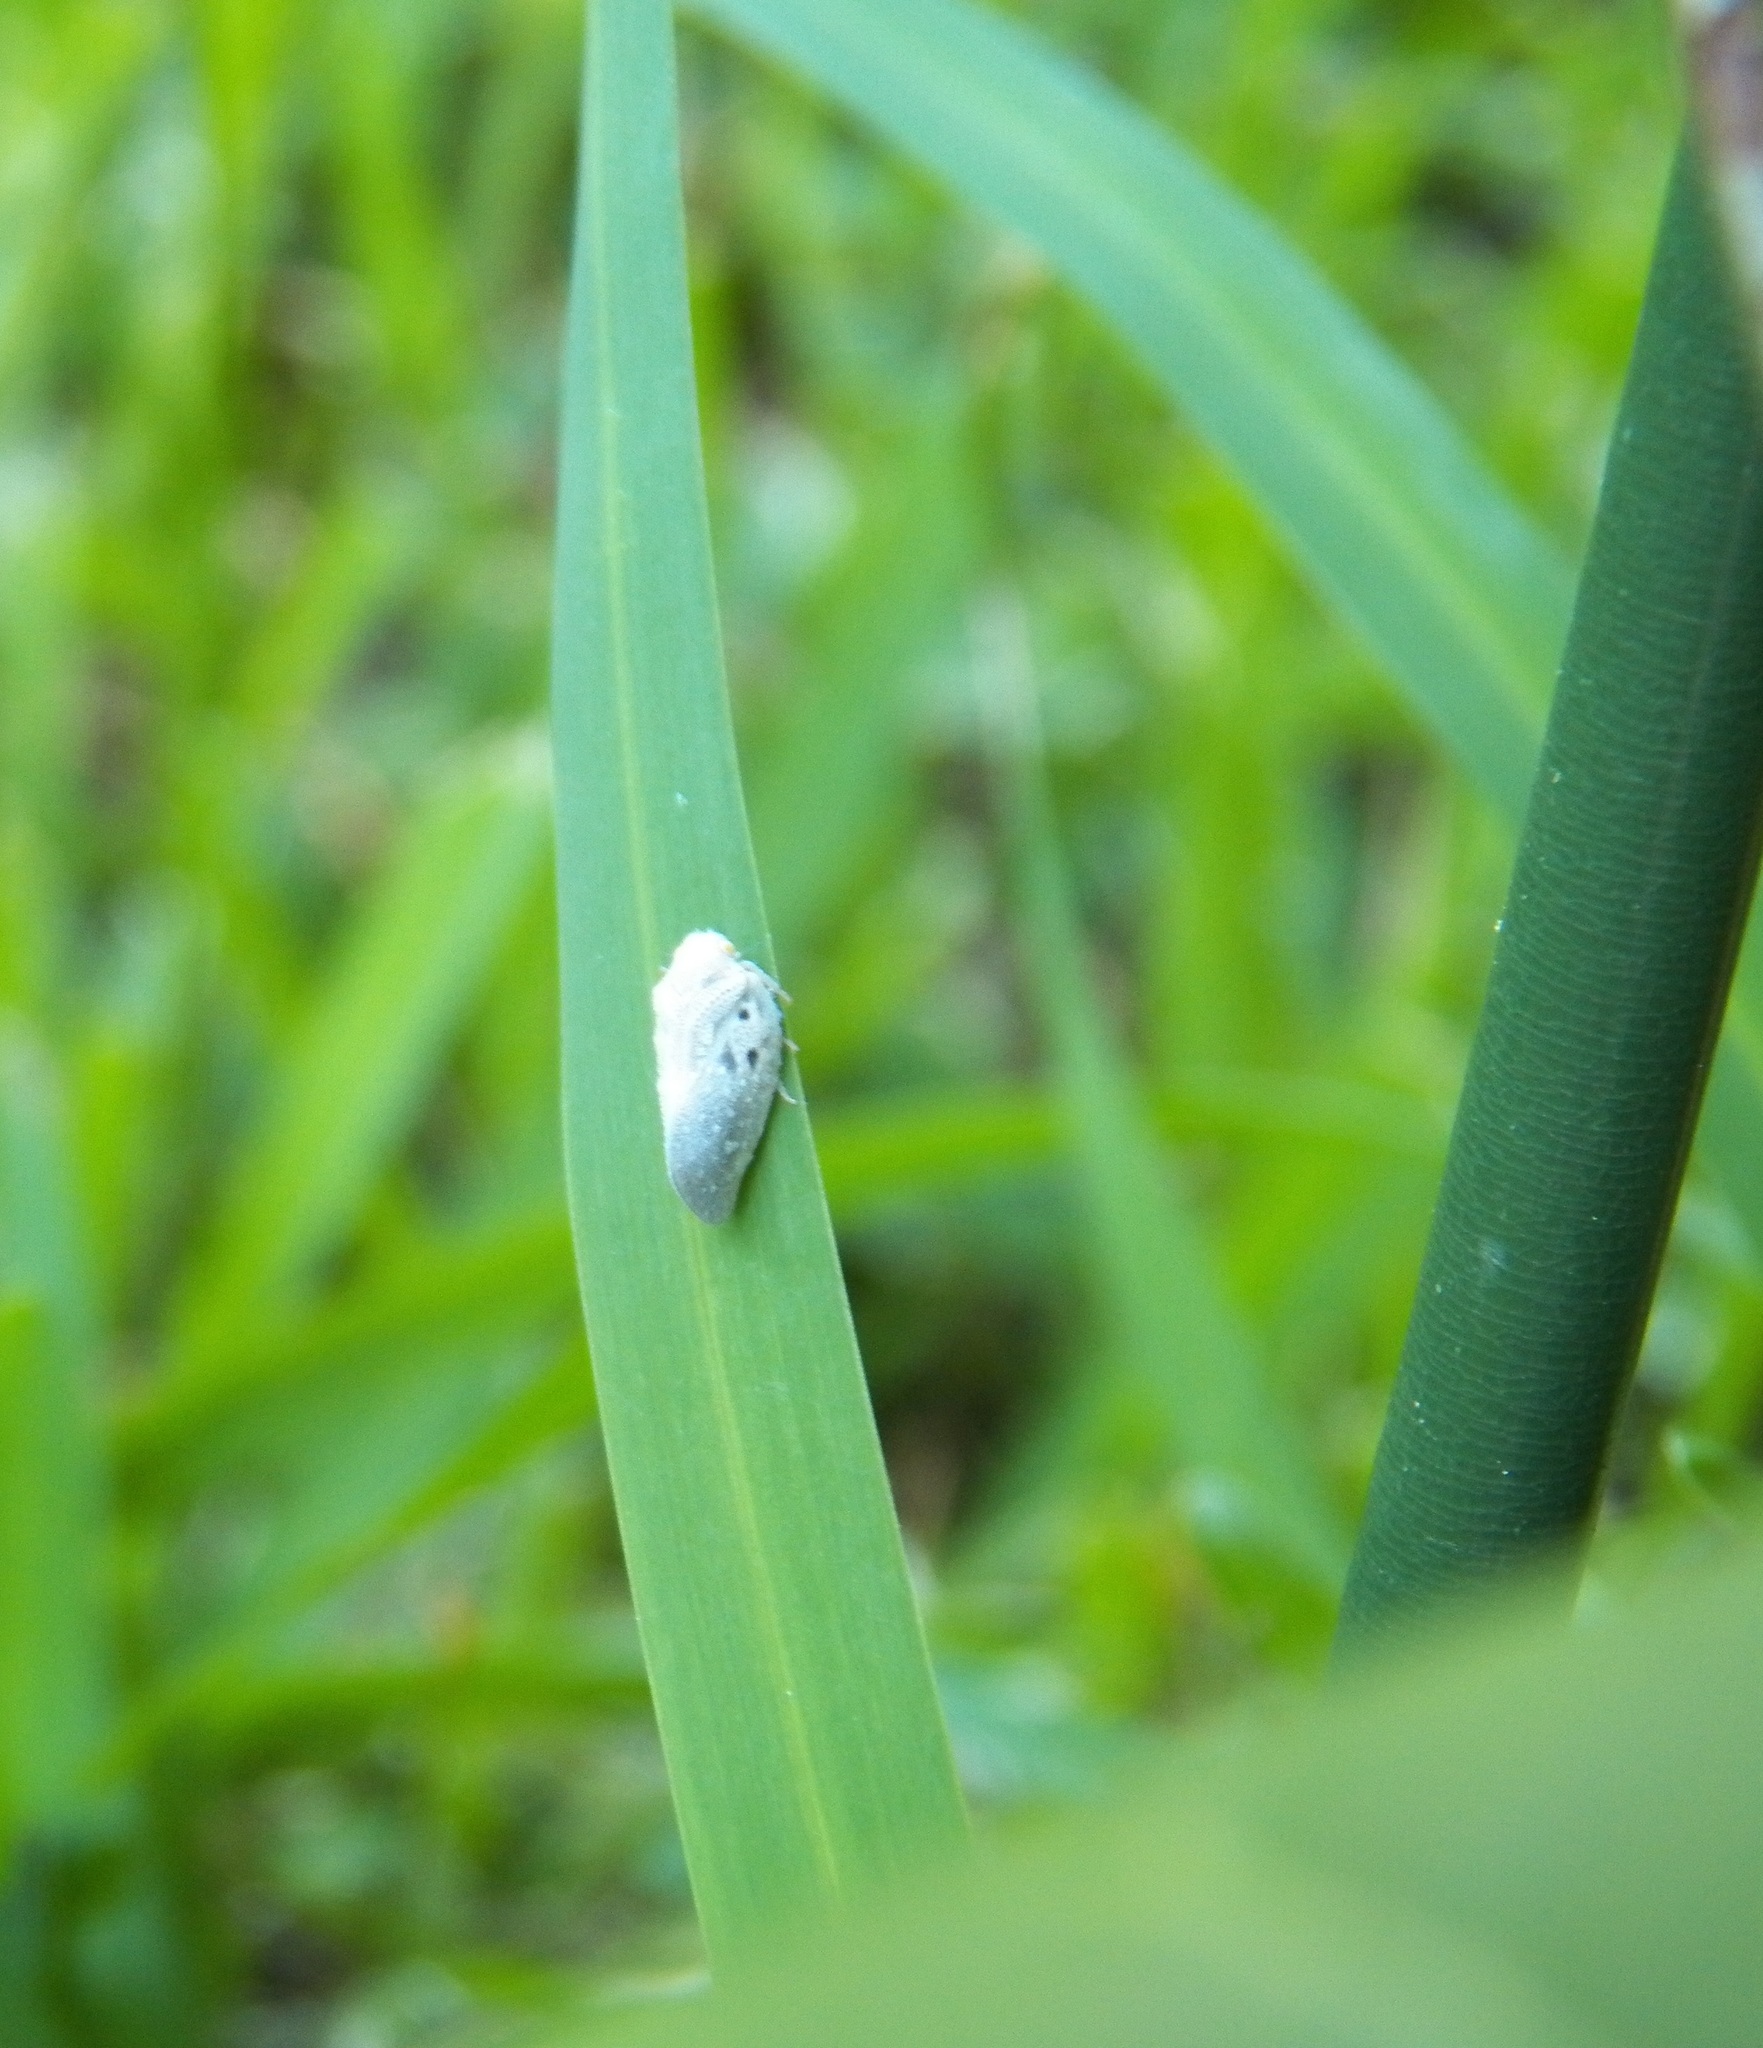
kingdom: Animalia
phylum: Arthropoda
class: Insecta
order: Hemiptera
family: Flatidae
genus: Metcalfa
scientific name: Metcalfa pruinosa
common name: Citrus flatid planthopper
